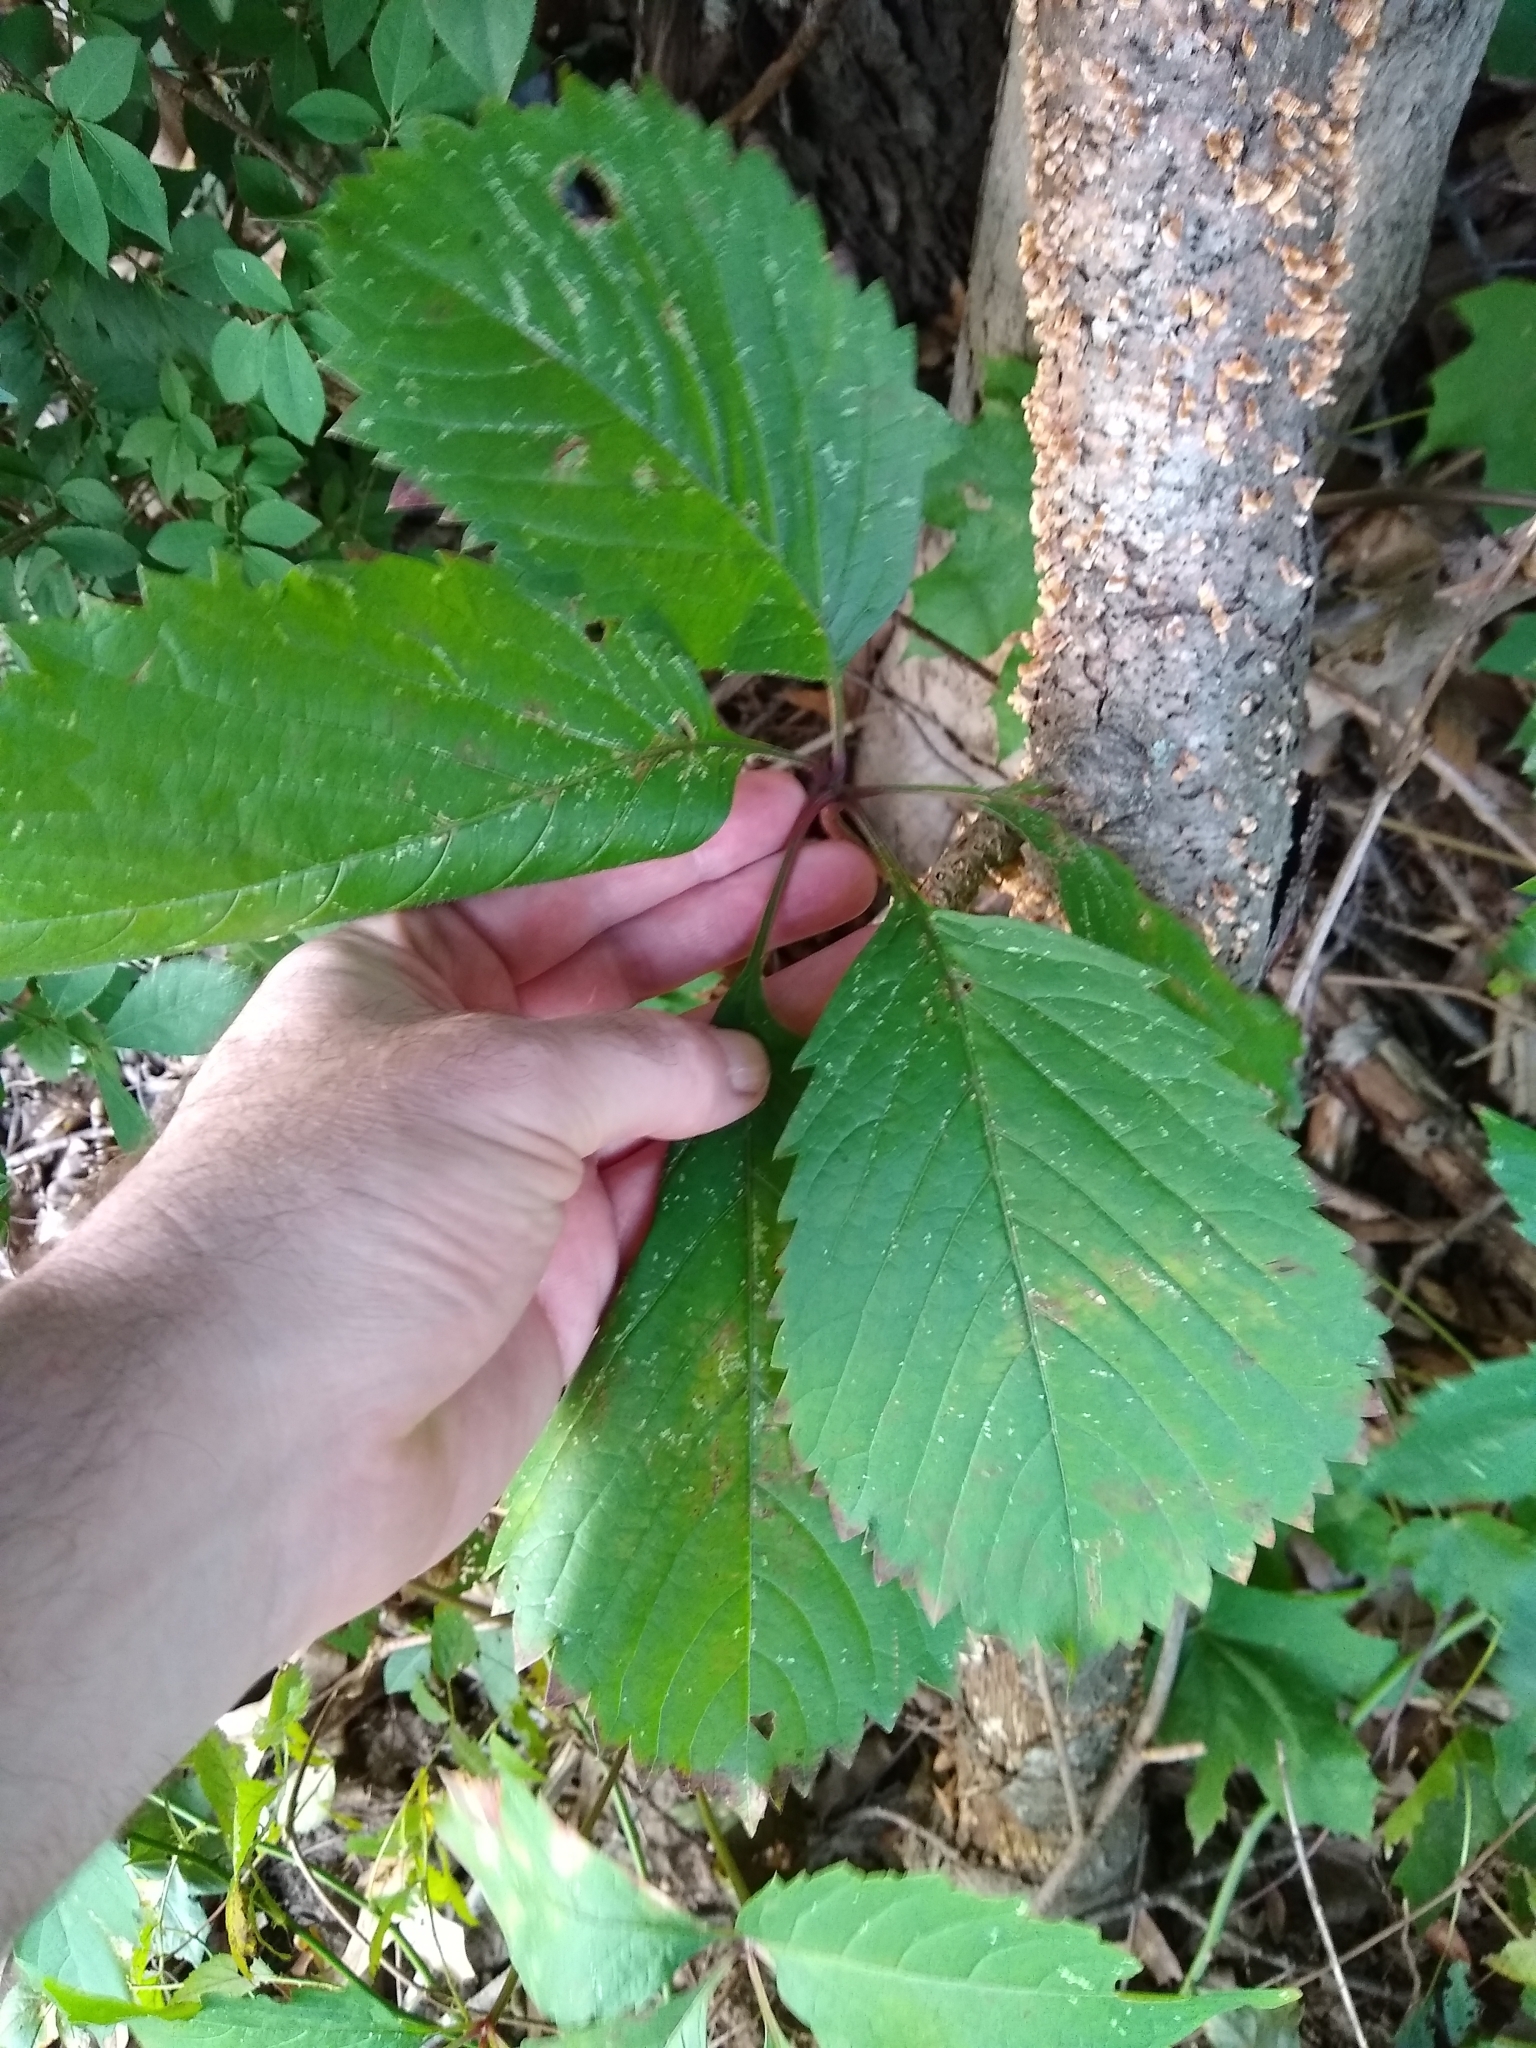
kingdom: Plantae
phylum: Tracheophyta
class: Magnoliopsida
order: Vitales
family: Vitaceae
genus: Parthenocissus
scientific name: Parthenocissus inserta
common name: False virginia-creeper
